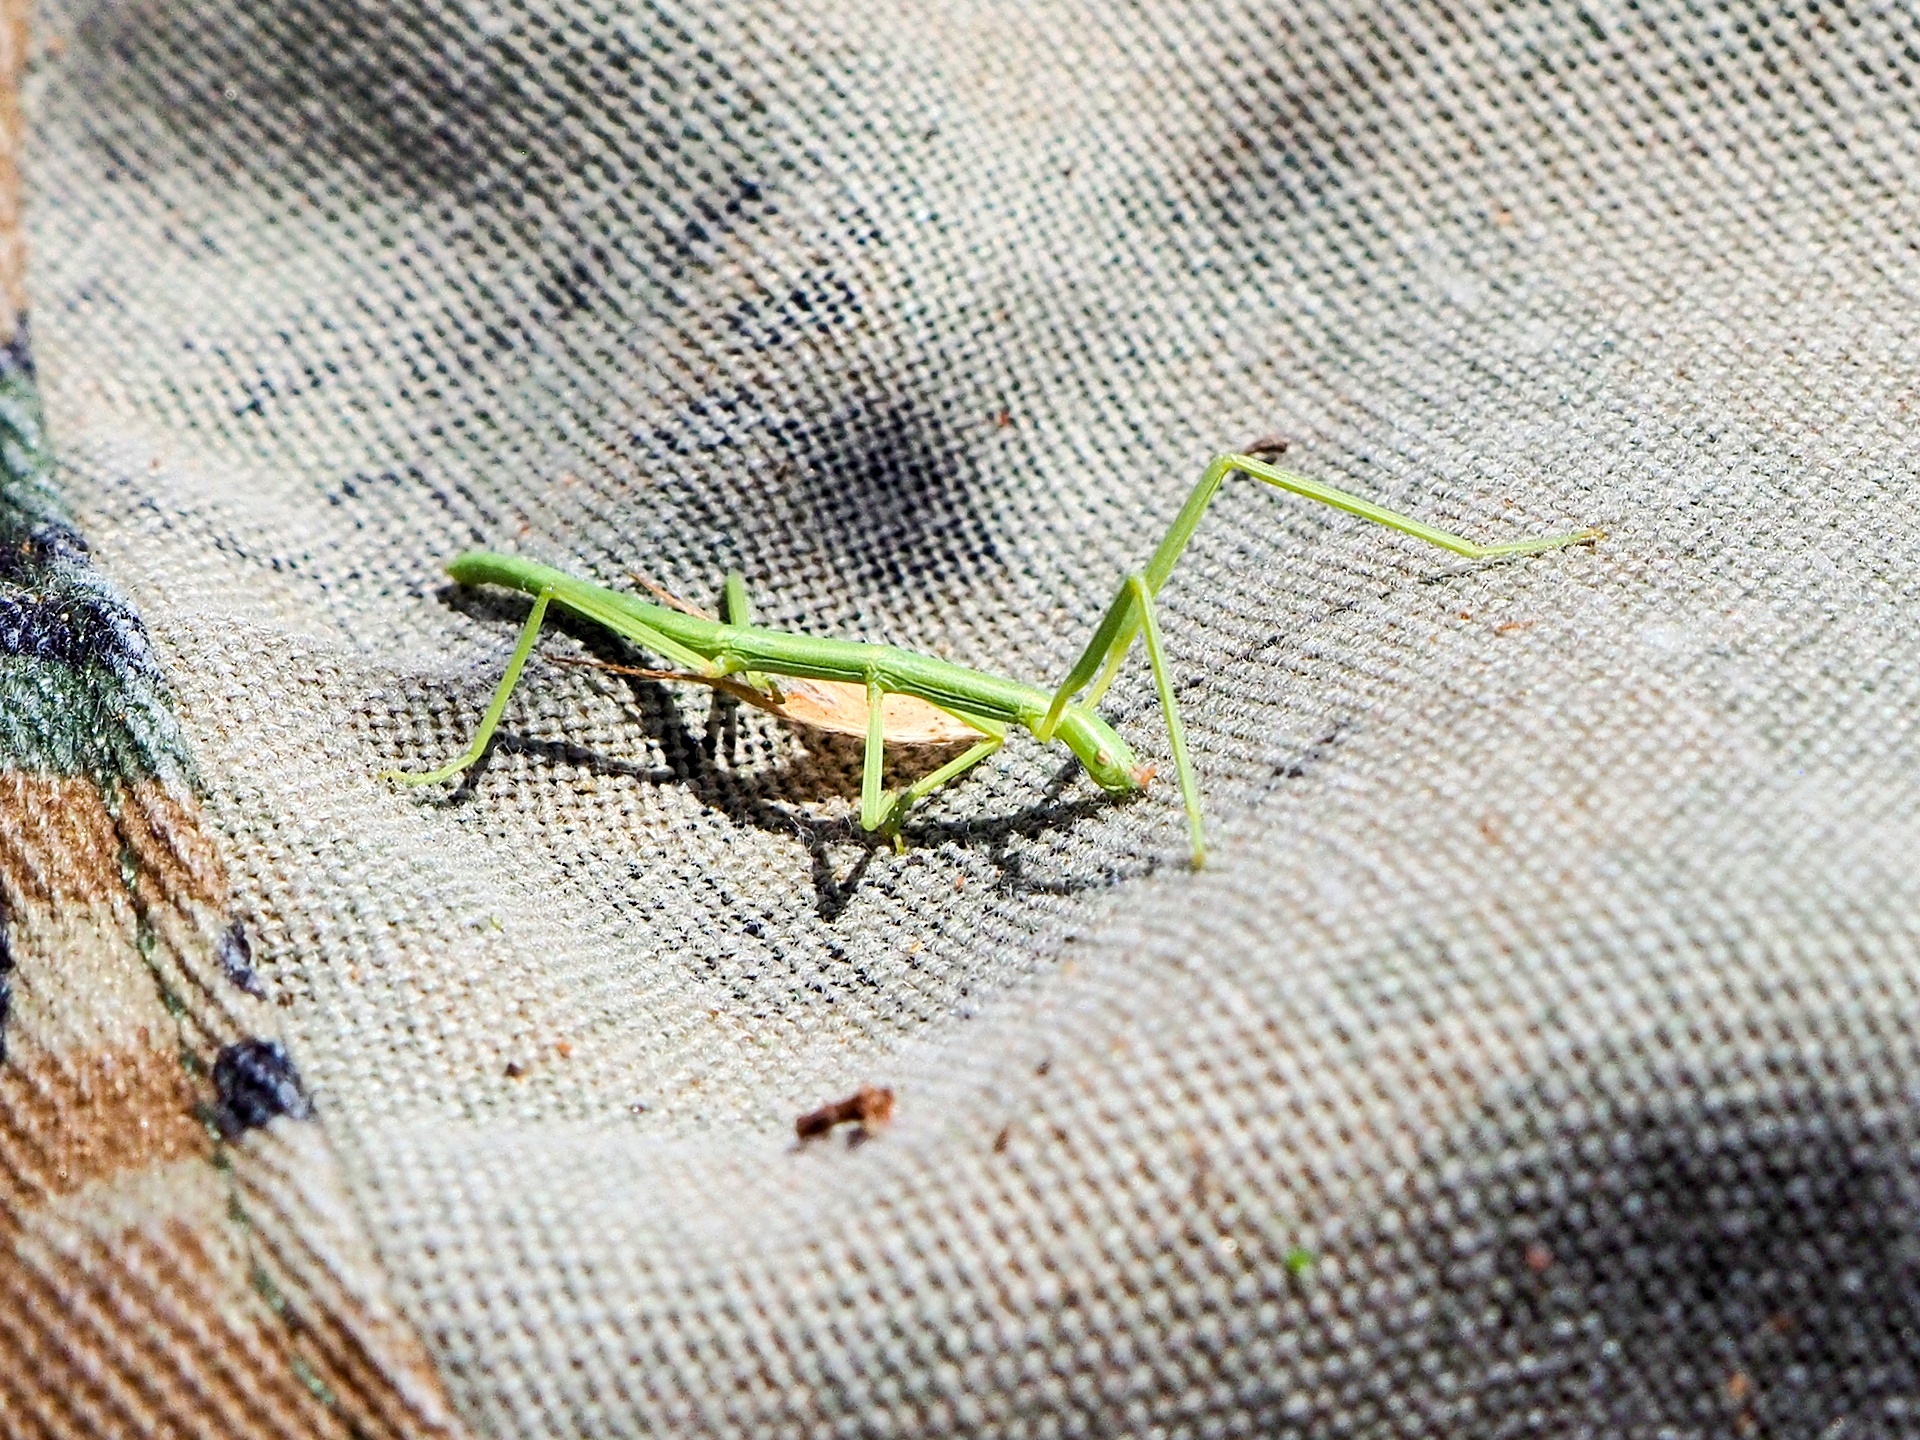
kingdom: Animalia
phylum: Arthropoda
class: Insecta
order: Phasmida
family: Bacillidae
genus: Bacillus
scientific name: Bacillus rossius
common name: Corsican stick-insect
